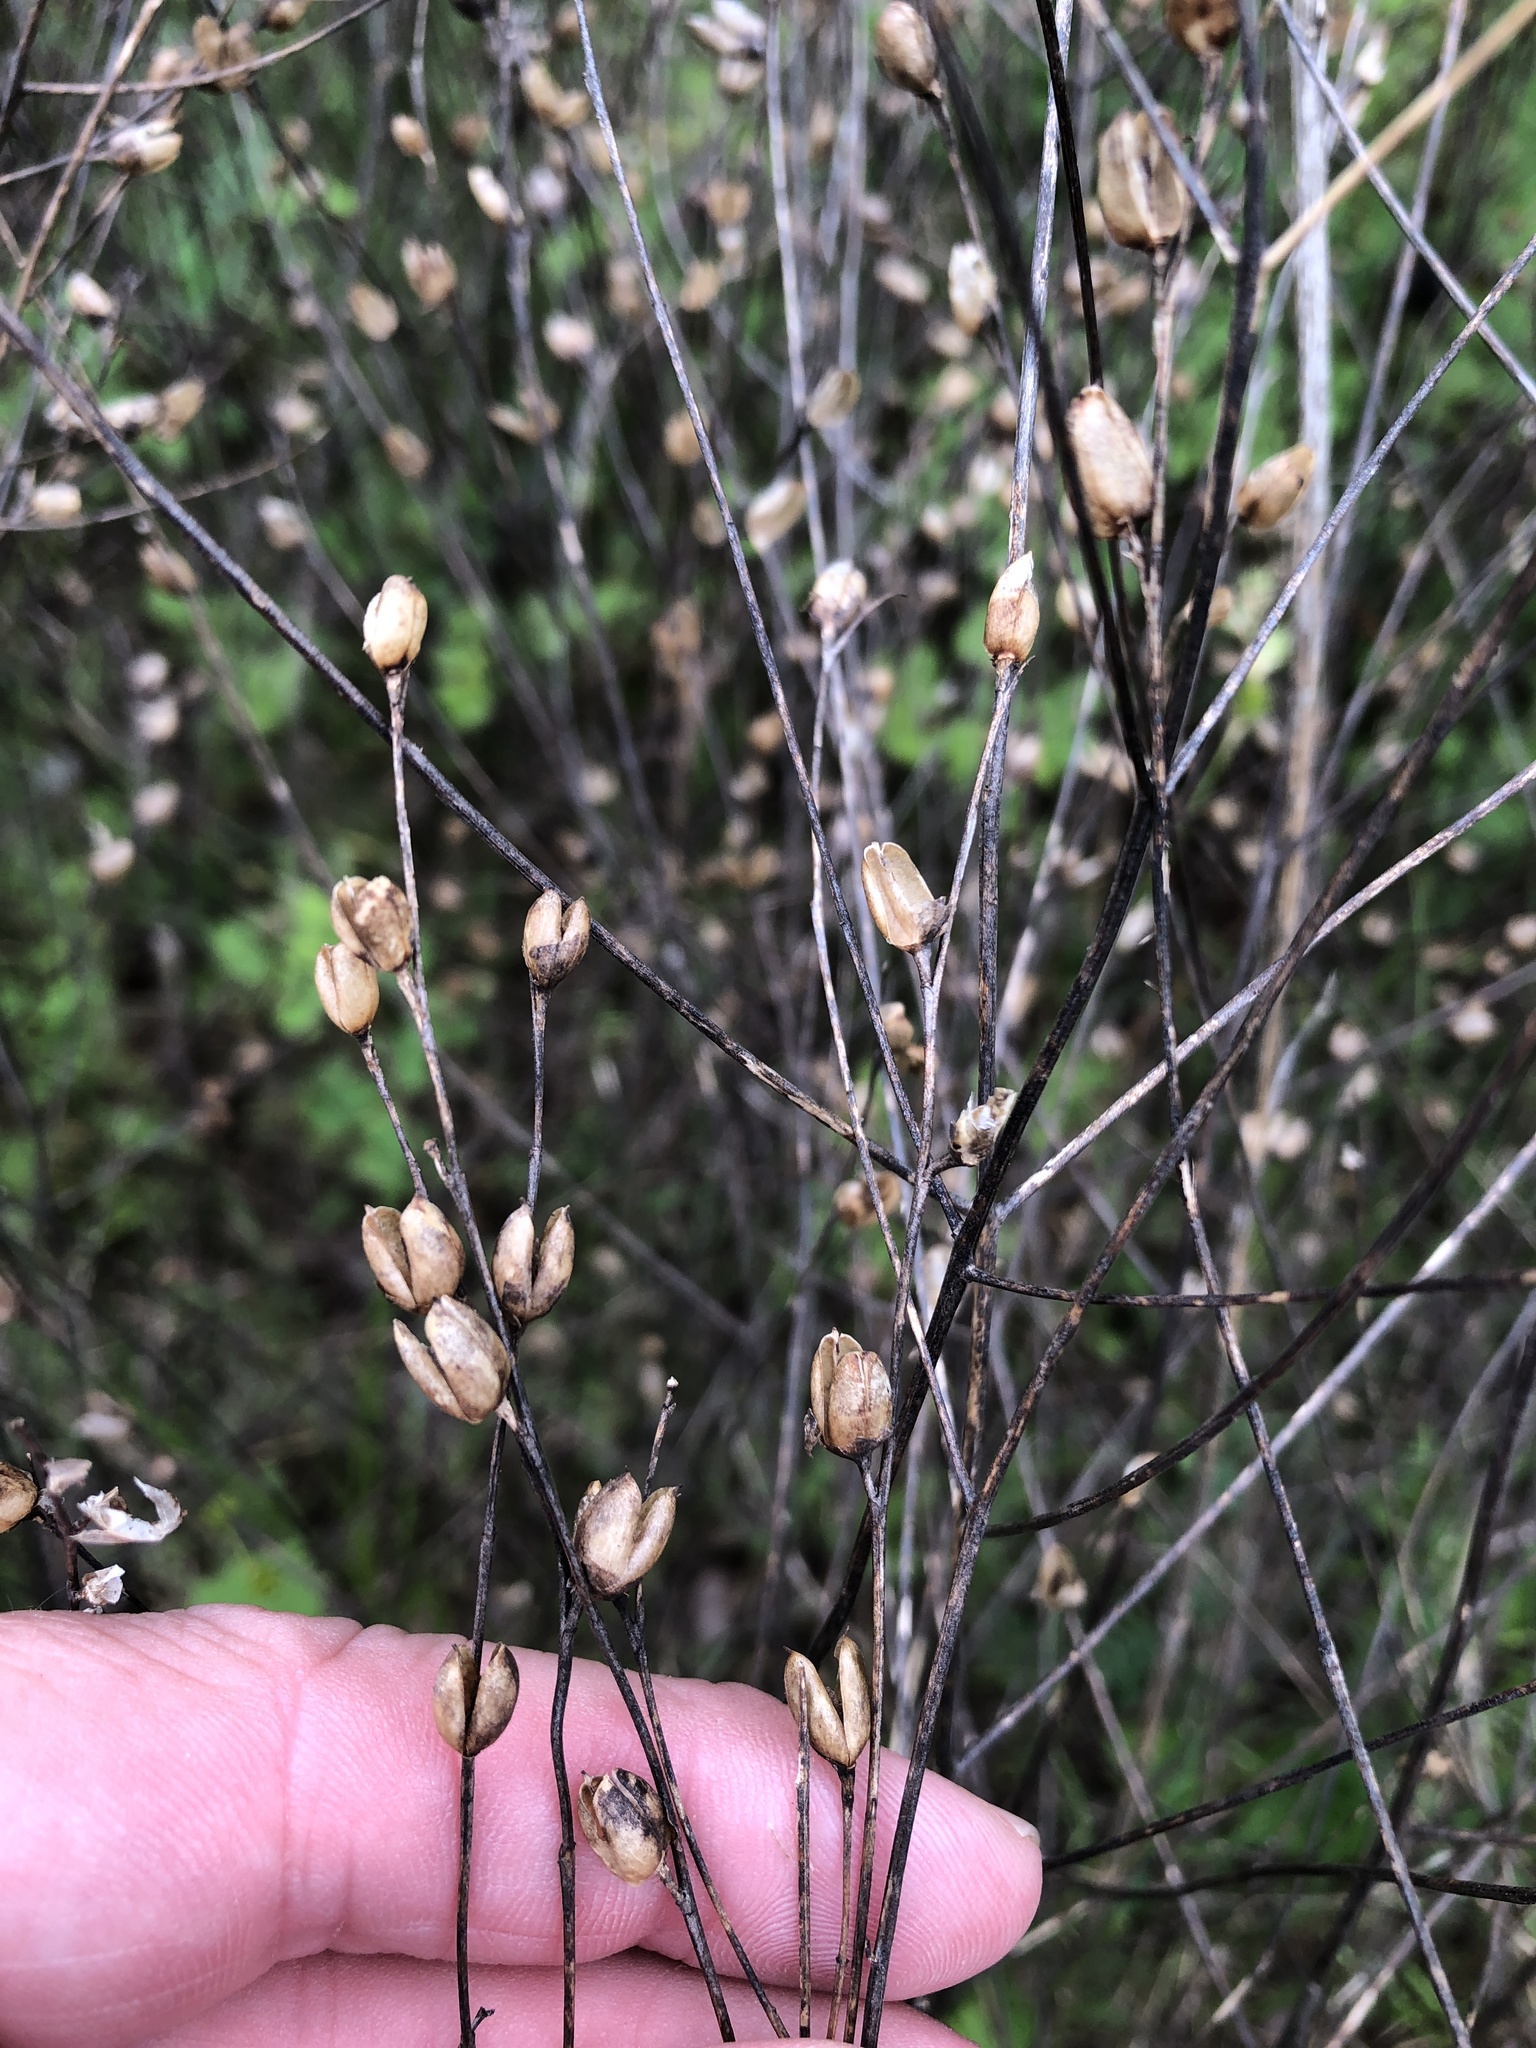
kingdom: Plantae
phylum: Tracheophyta
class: Magnoliopsida
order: Lamiales
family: Orobanchaceae
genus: Agalinis
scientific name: Agalinis heterophylla
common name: Prairie agalinis
